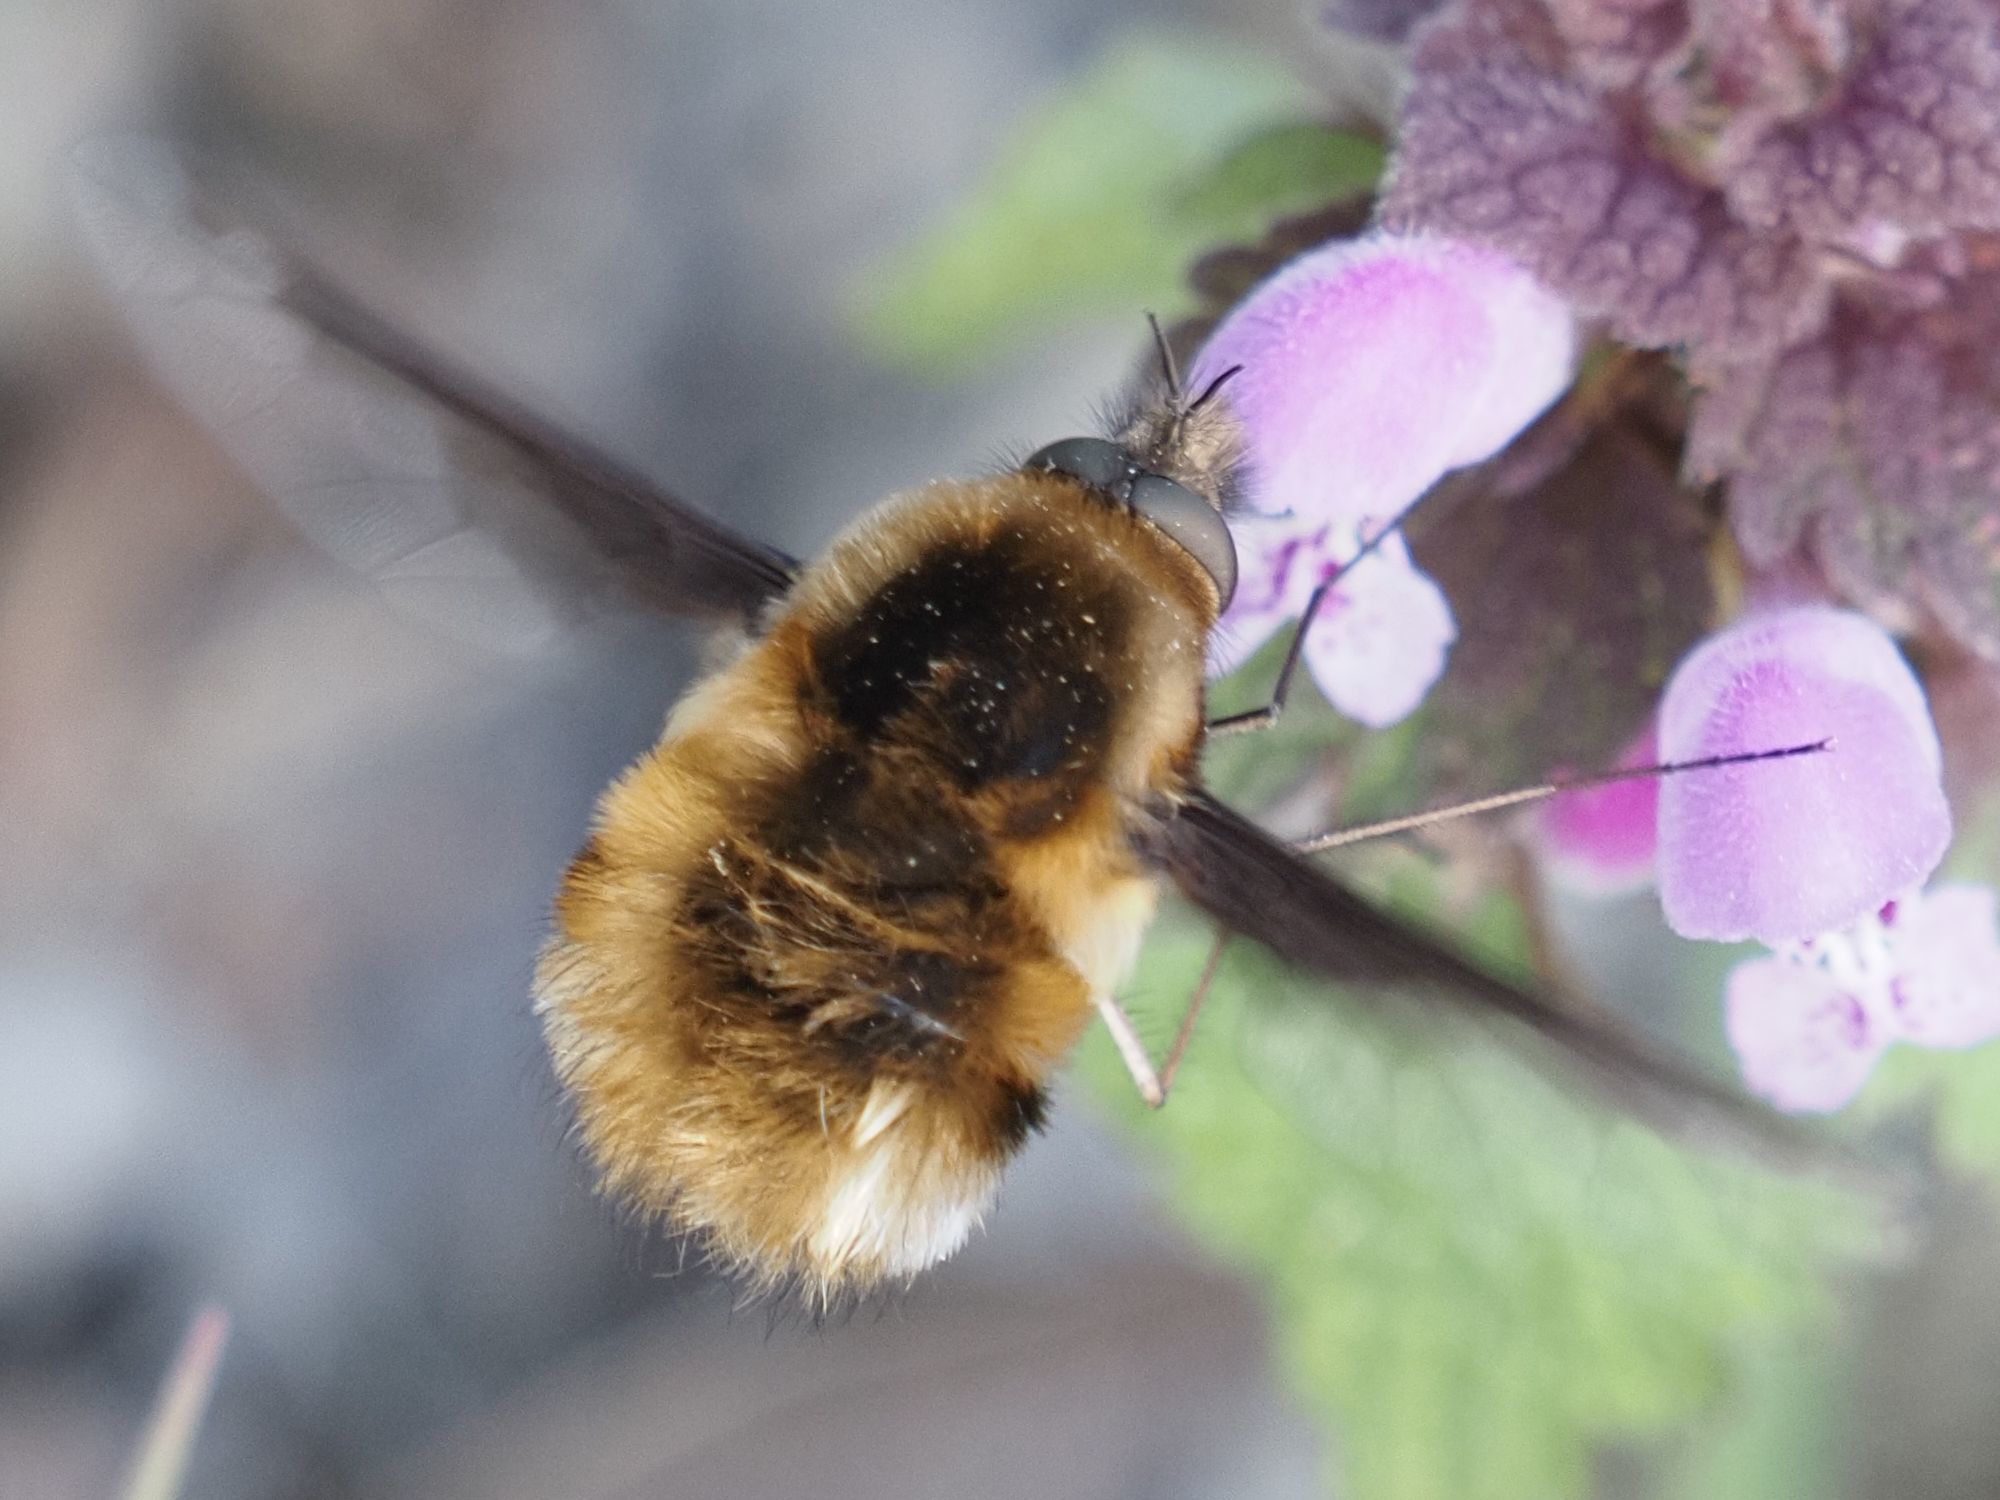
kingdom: Animalia
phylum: Arthropoda
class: Insecta
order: Diptera
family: Bombyliidae
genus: Bombylius
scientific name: Bombylius major
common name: Bee fly
